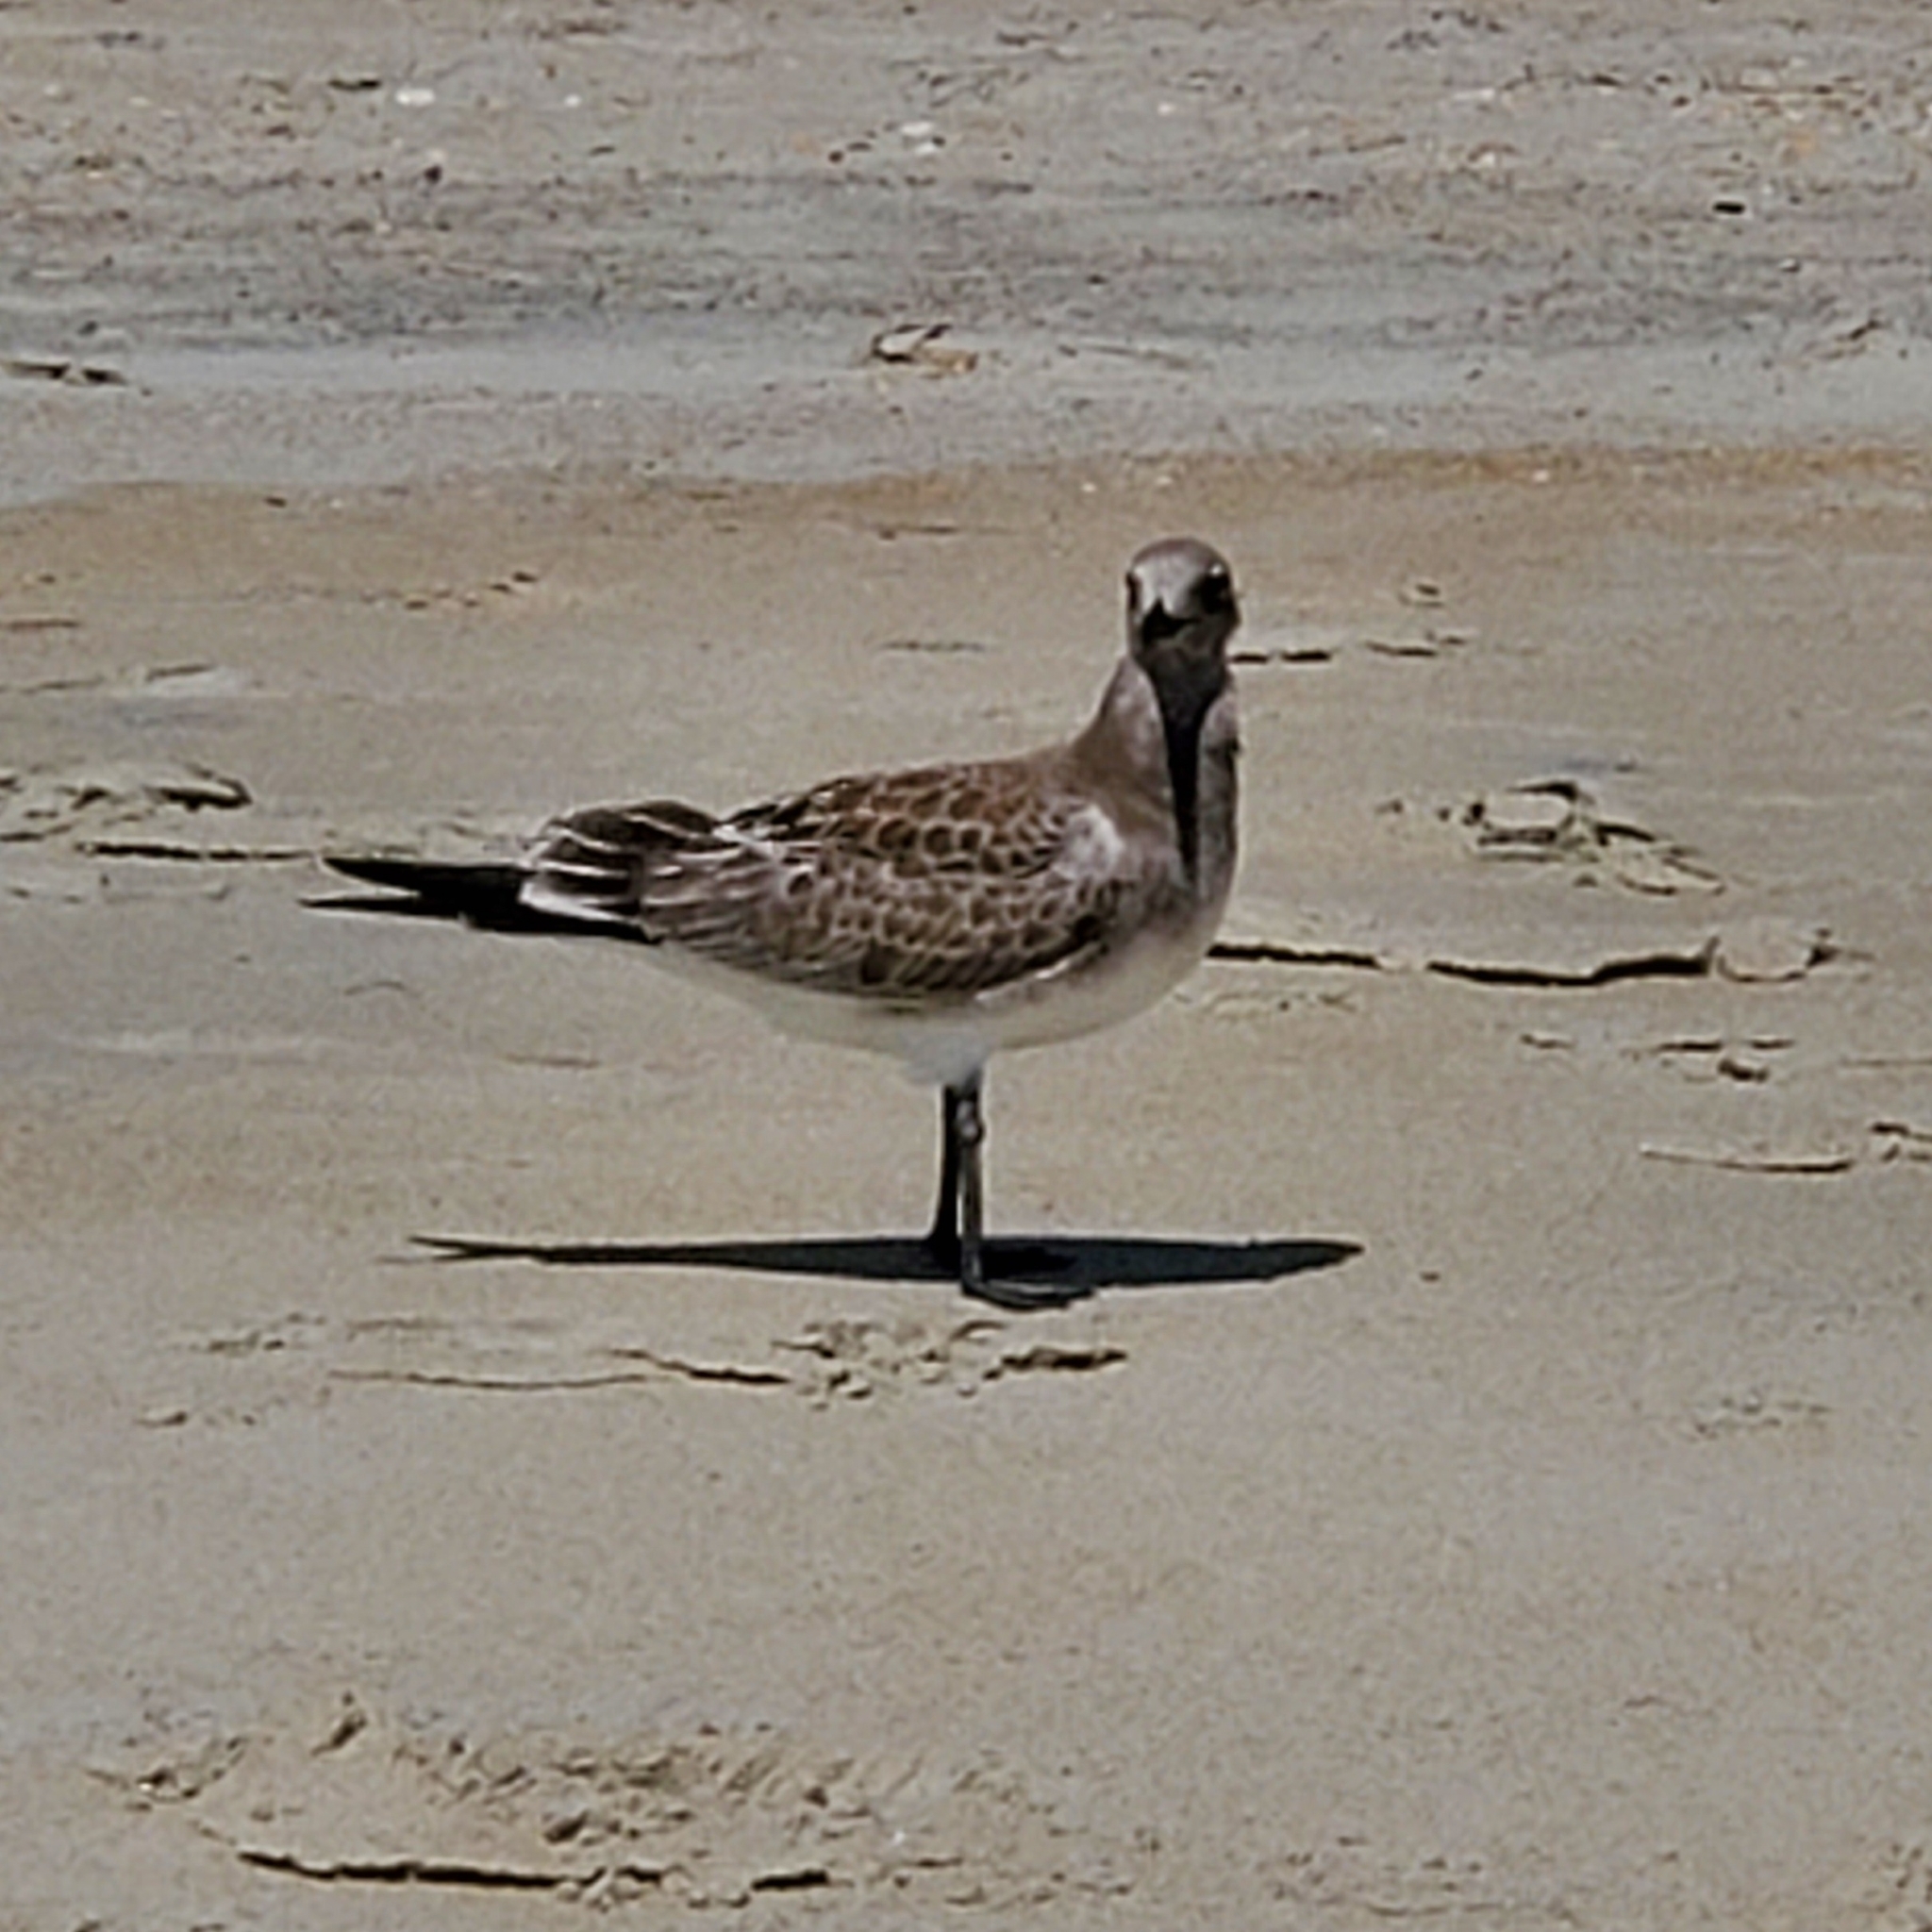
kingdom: Animalia
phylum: Chordata
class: Aves
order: Charadriiformes
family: Laridae
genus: Leucophaeus
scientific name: Leucophaeus atricilla
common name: Laughing gull
